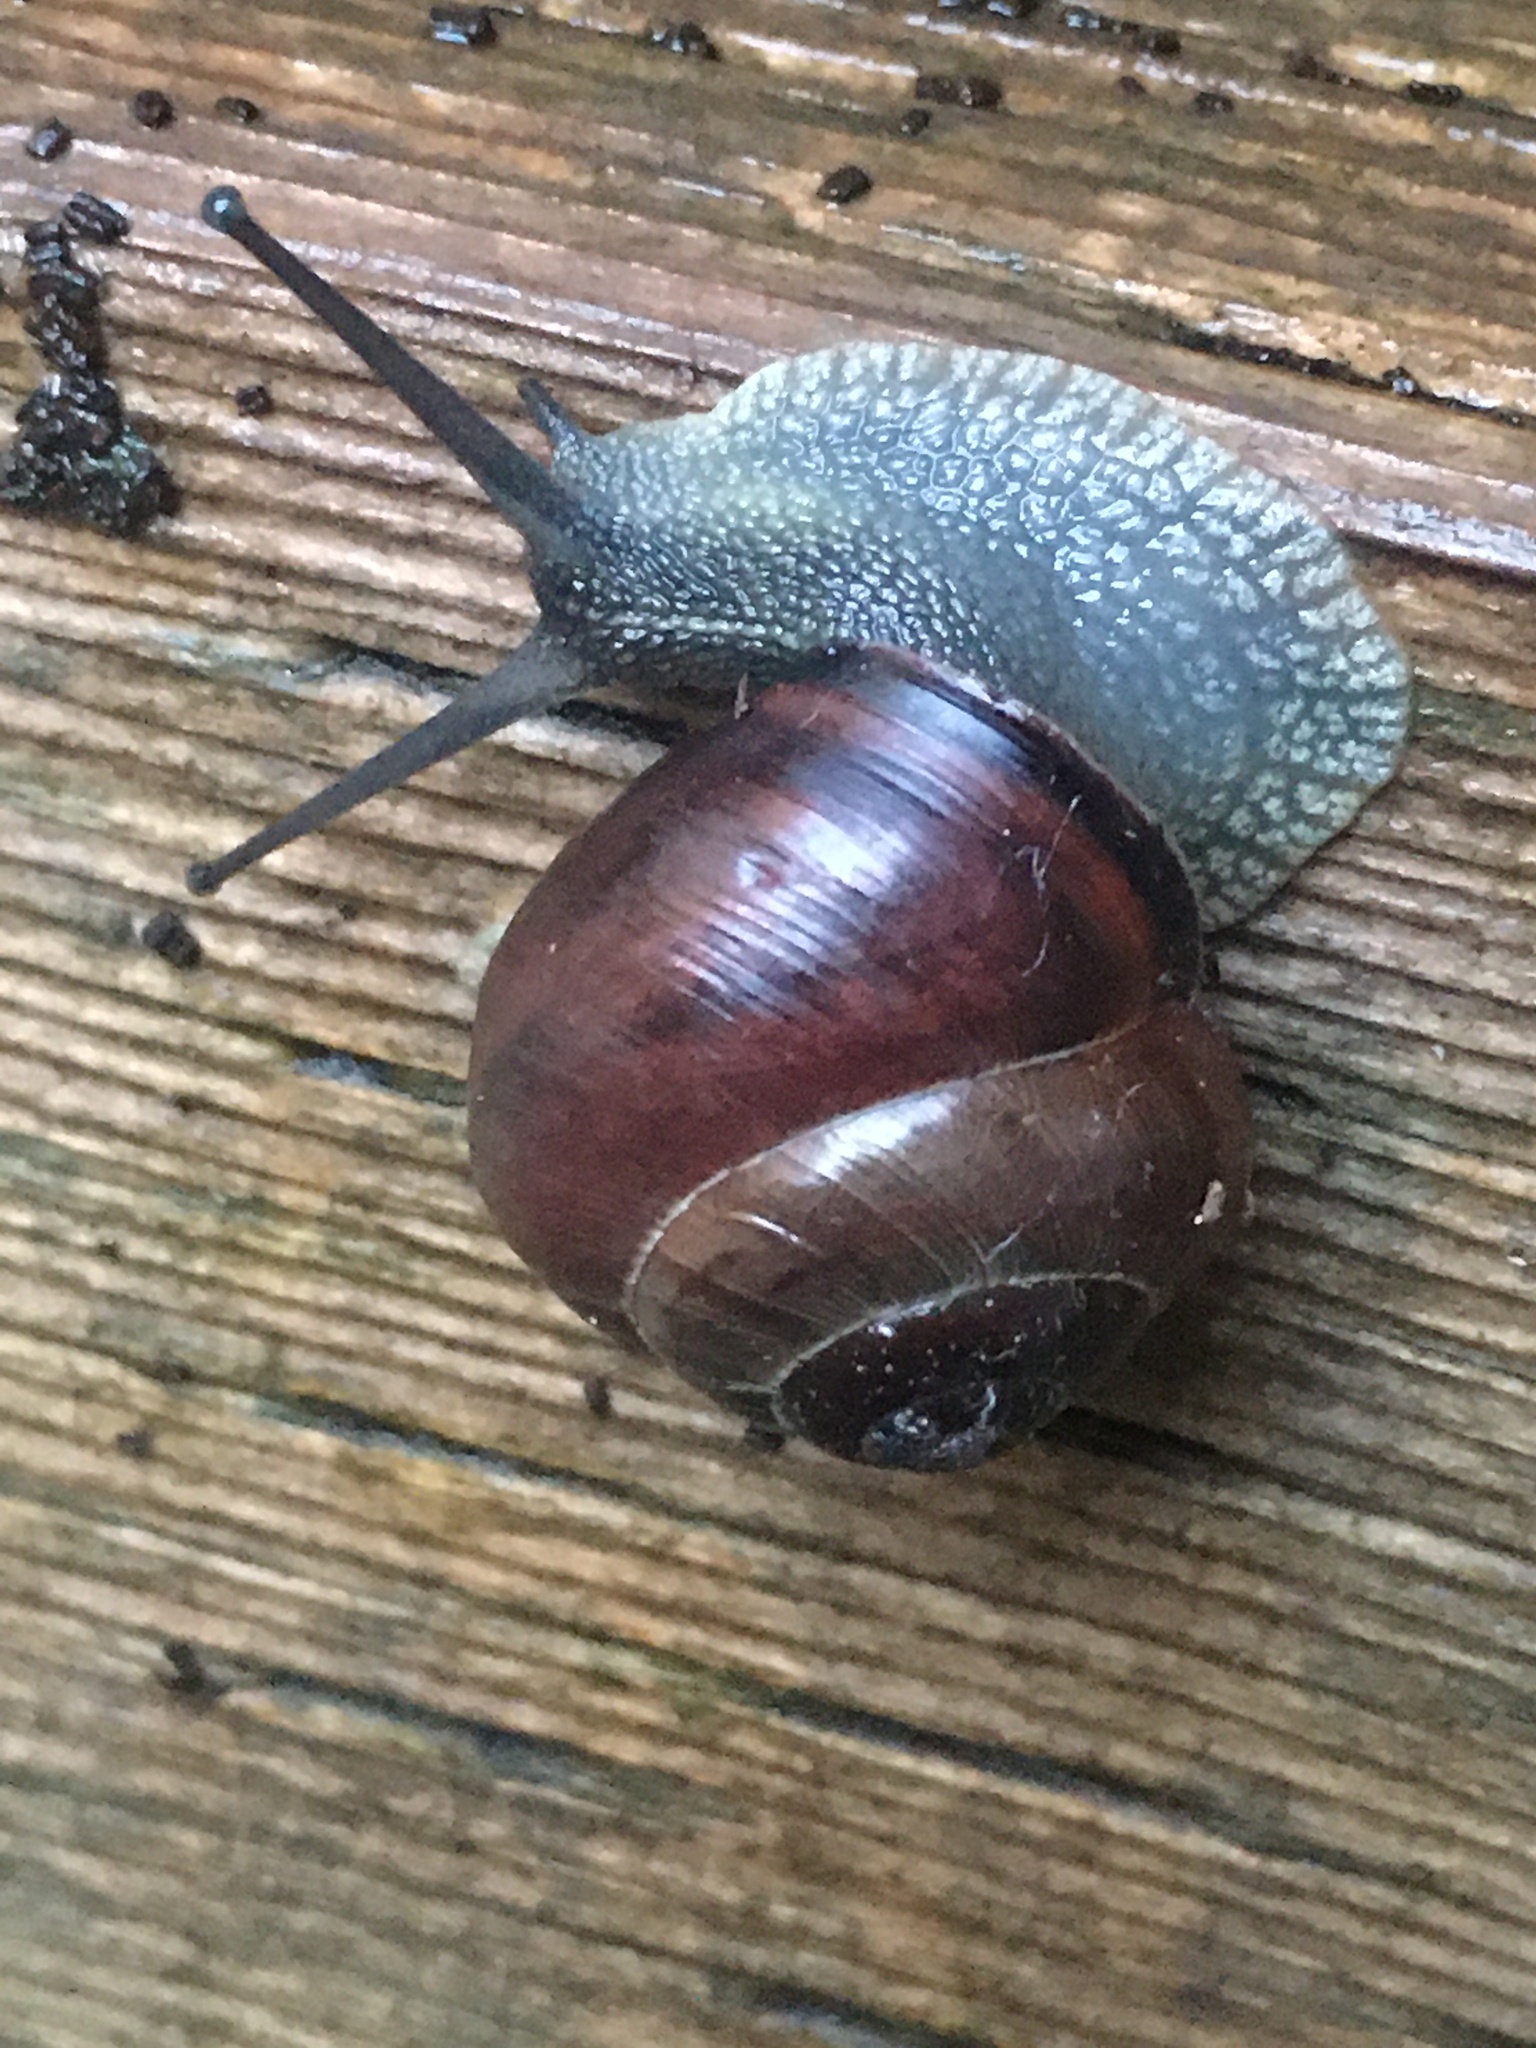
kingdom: Animalia
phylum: Mollusca
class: Gastropoda
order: Stylommatophora
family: Helicidae
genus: Cepaea
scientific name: Cepaea nemoralis
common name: Grovesnail
